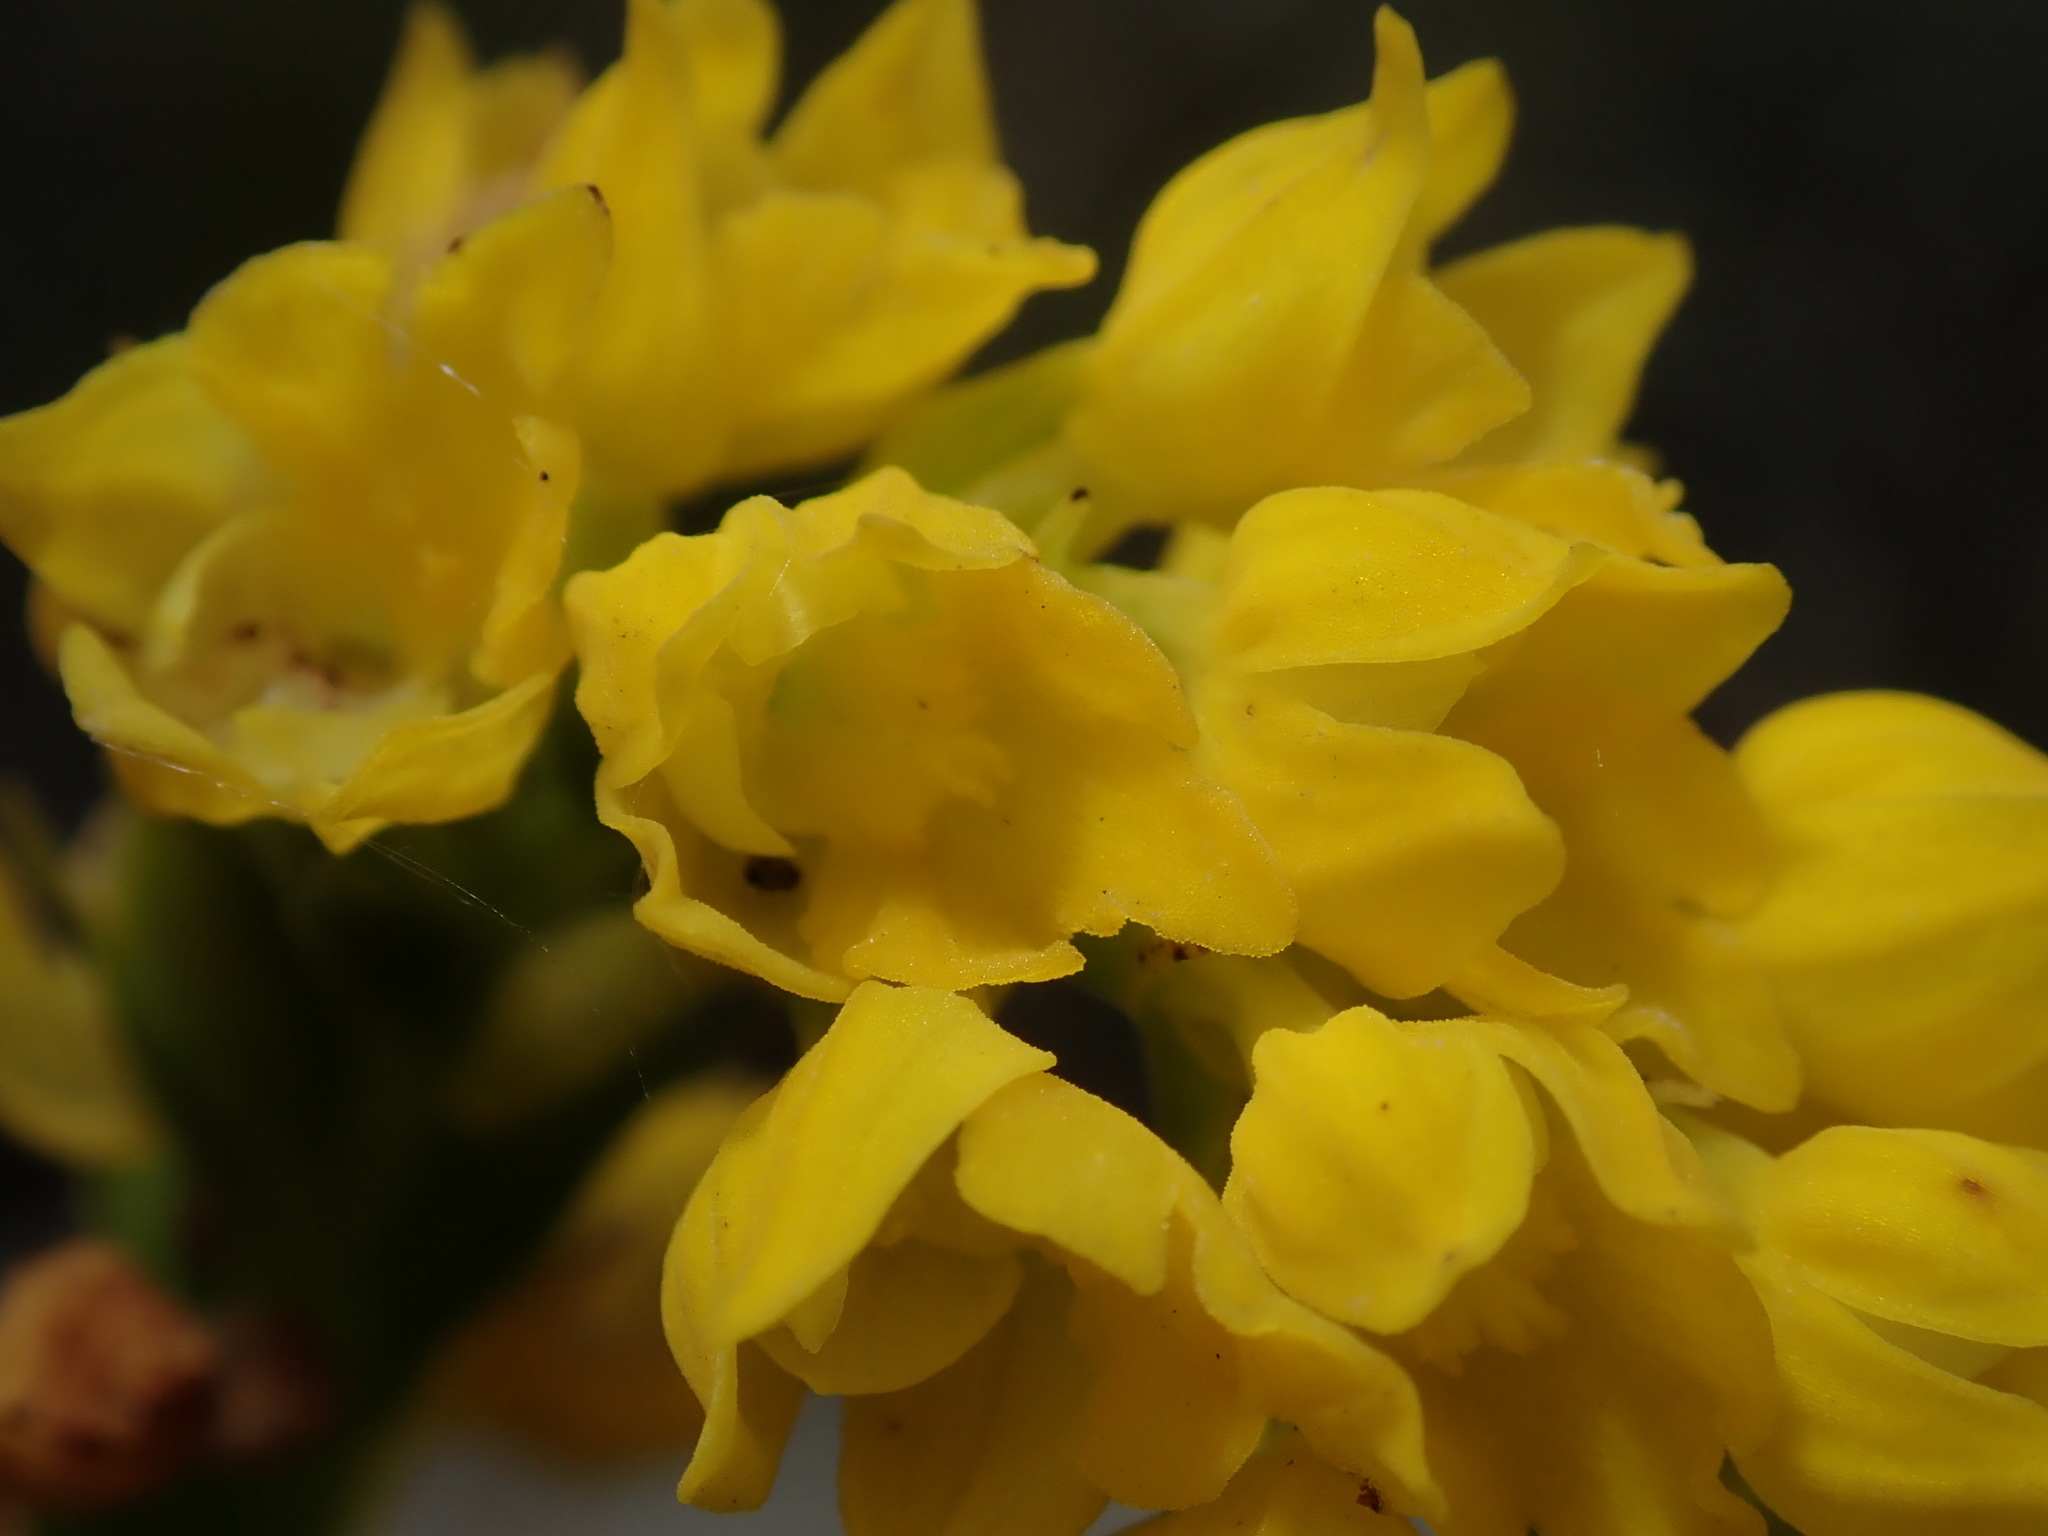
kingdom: Plantae
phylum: Tracheophyta
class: Liliopsida
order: Asparagales
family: Orchidaceae
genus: Schizochilus
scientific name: Schizochilus cecilii
